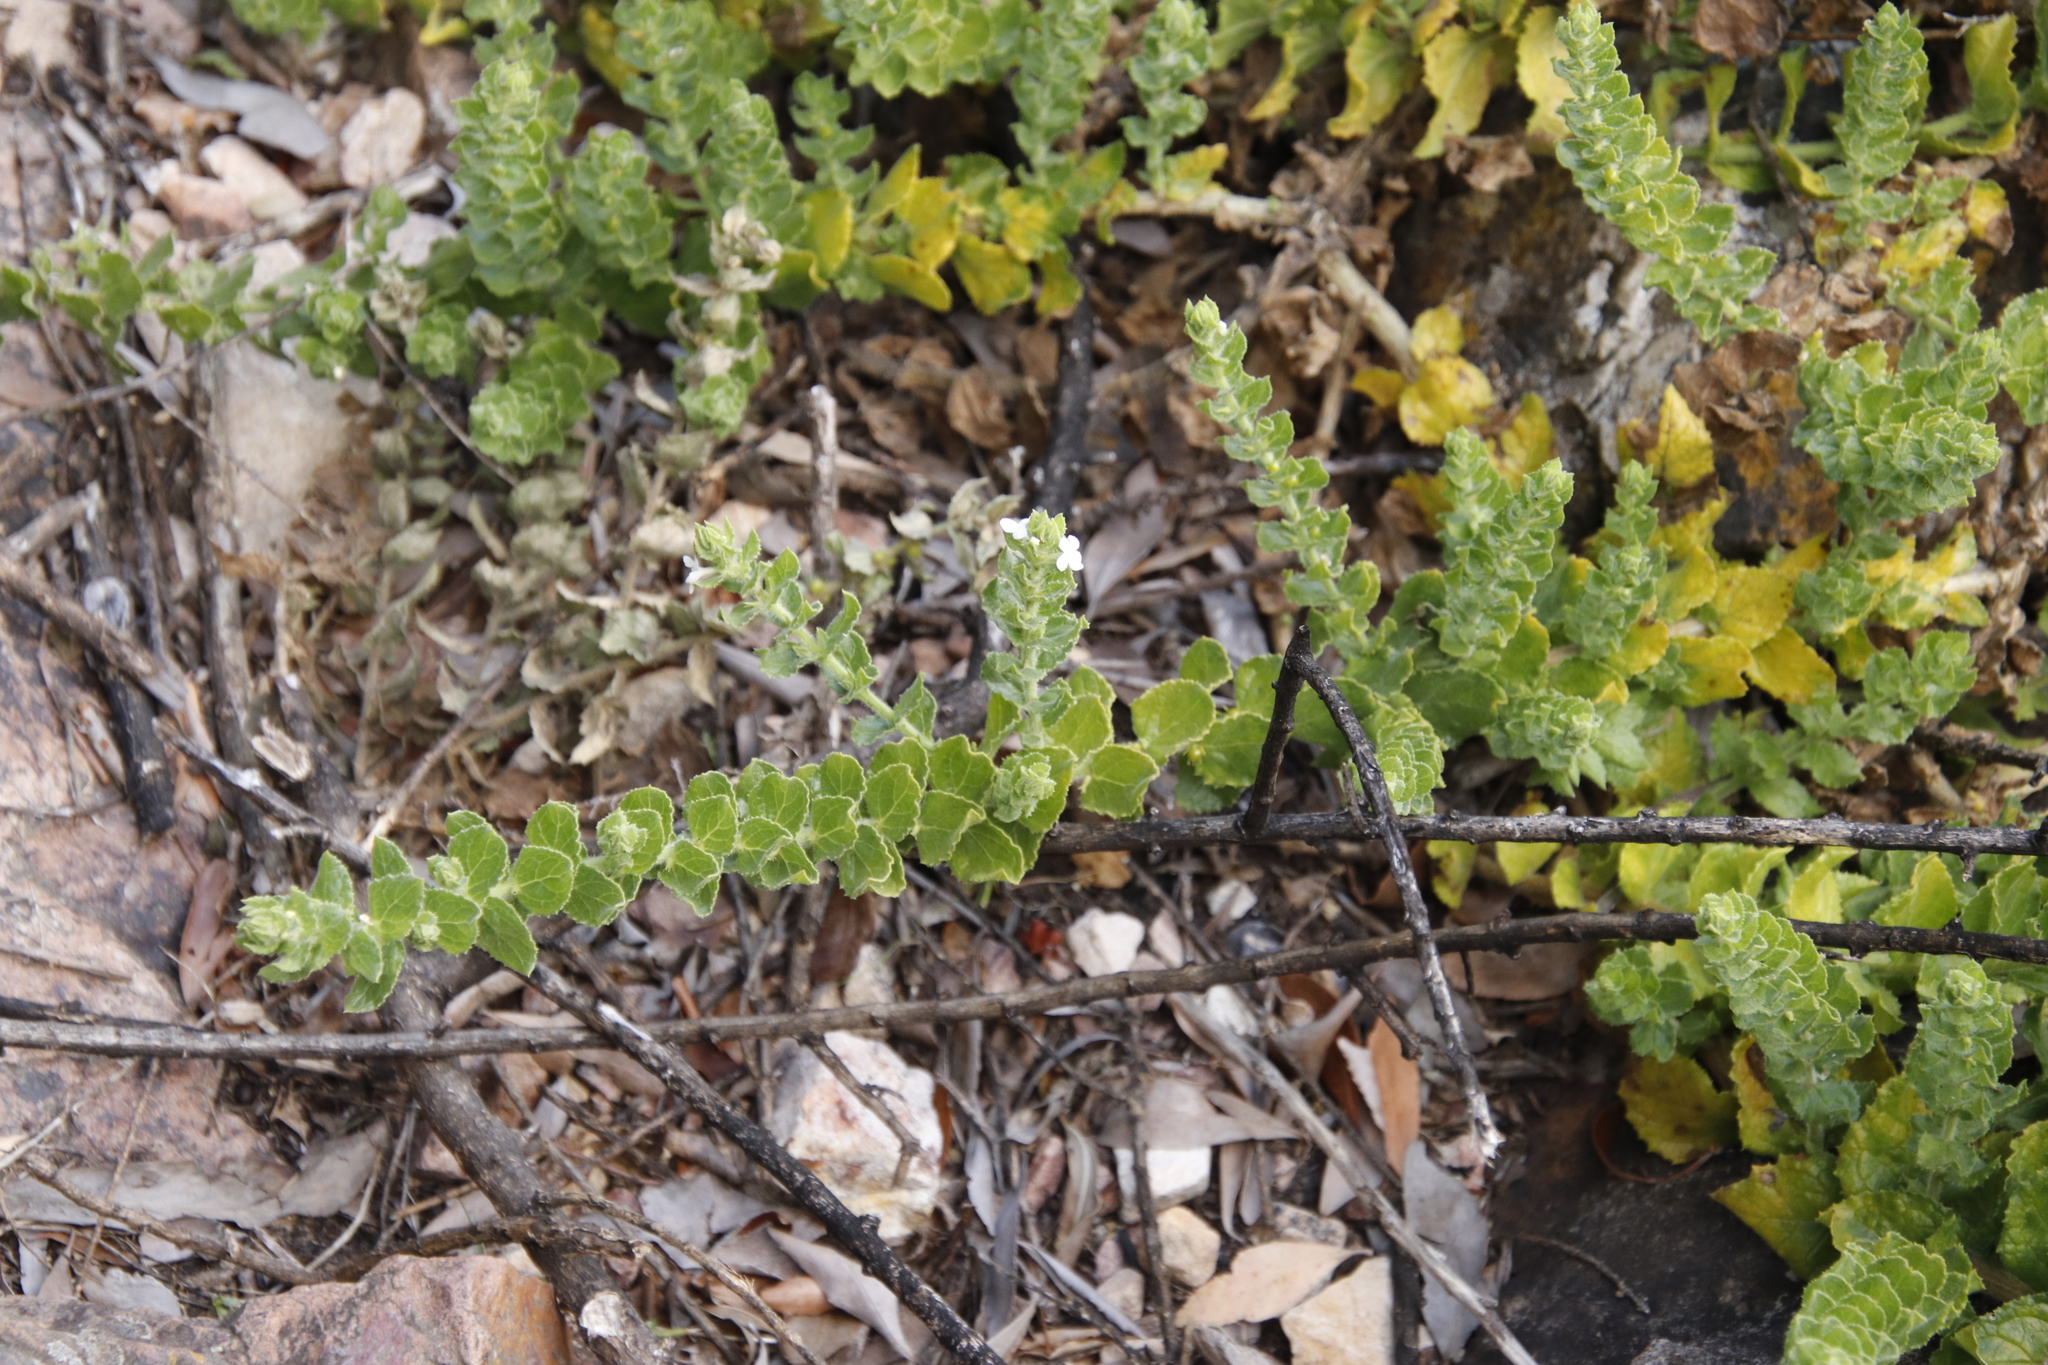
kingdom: Plantae
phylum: Tracheophyta
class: Magnoliopsida
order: Lamiales
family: Scrophulariaceae
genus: Oftia
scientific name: Oftia africana
